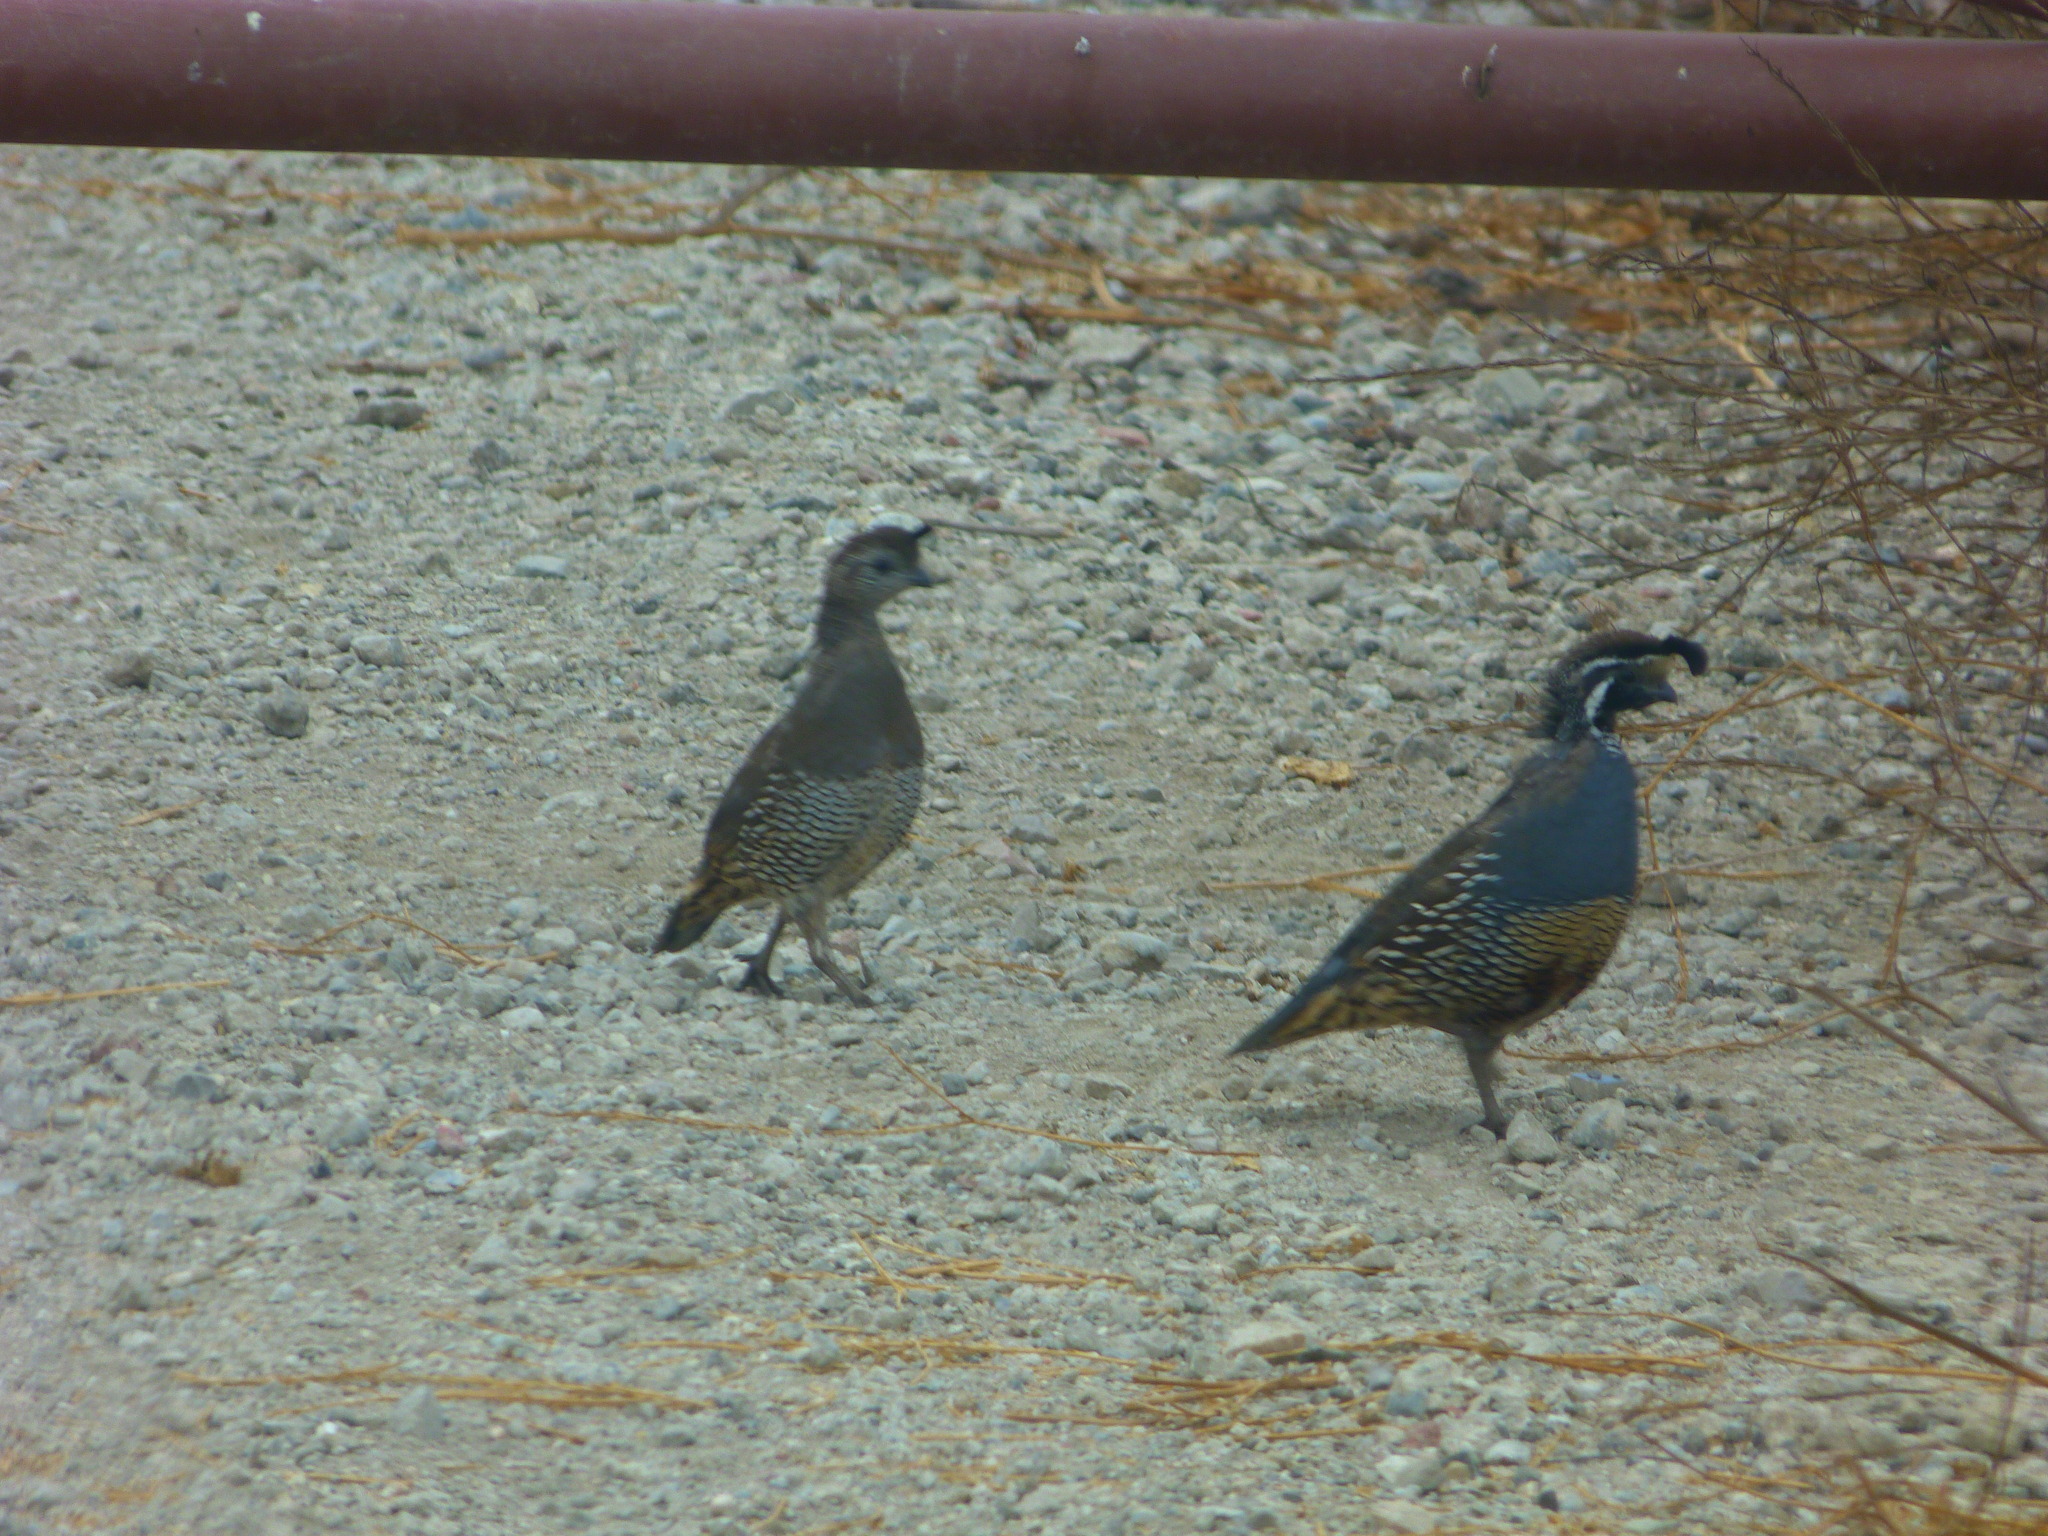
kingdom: Animalia
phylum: Chordata
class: Aves
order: Galliformes
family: Odontophoridae
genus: Callipepla
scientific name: Callipepla californica
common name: California quail
